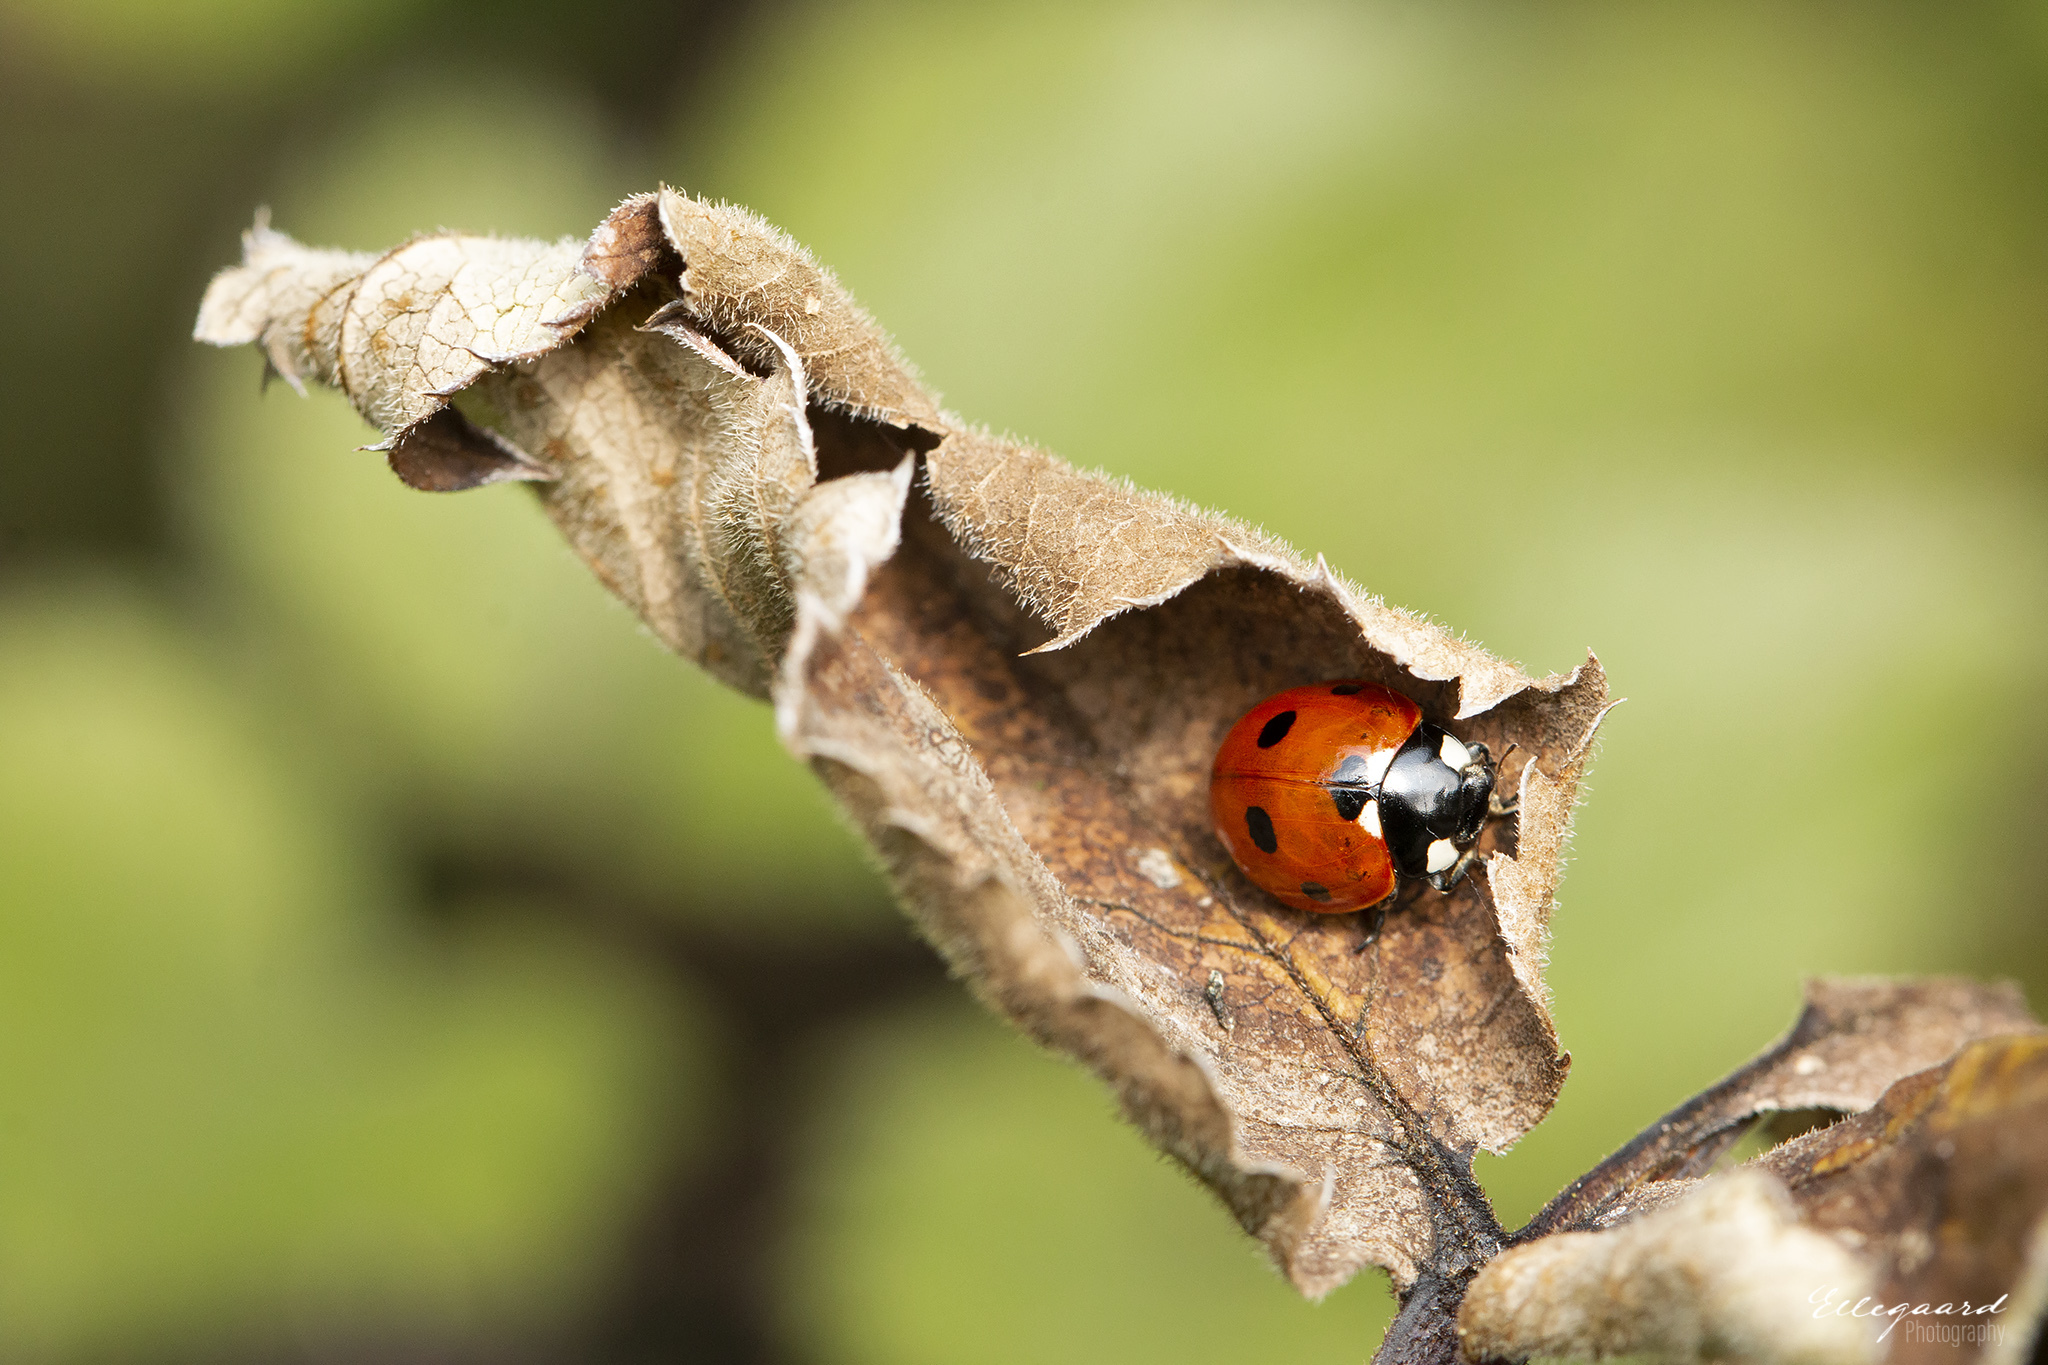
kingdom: Animalia
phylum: Arthropoda
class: Insecta
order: Coleoptera
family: Coccinellidae
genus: Coccinella
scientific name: Coccinella septempunctata
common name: Sevenspotted lady beetle
